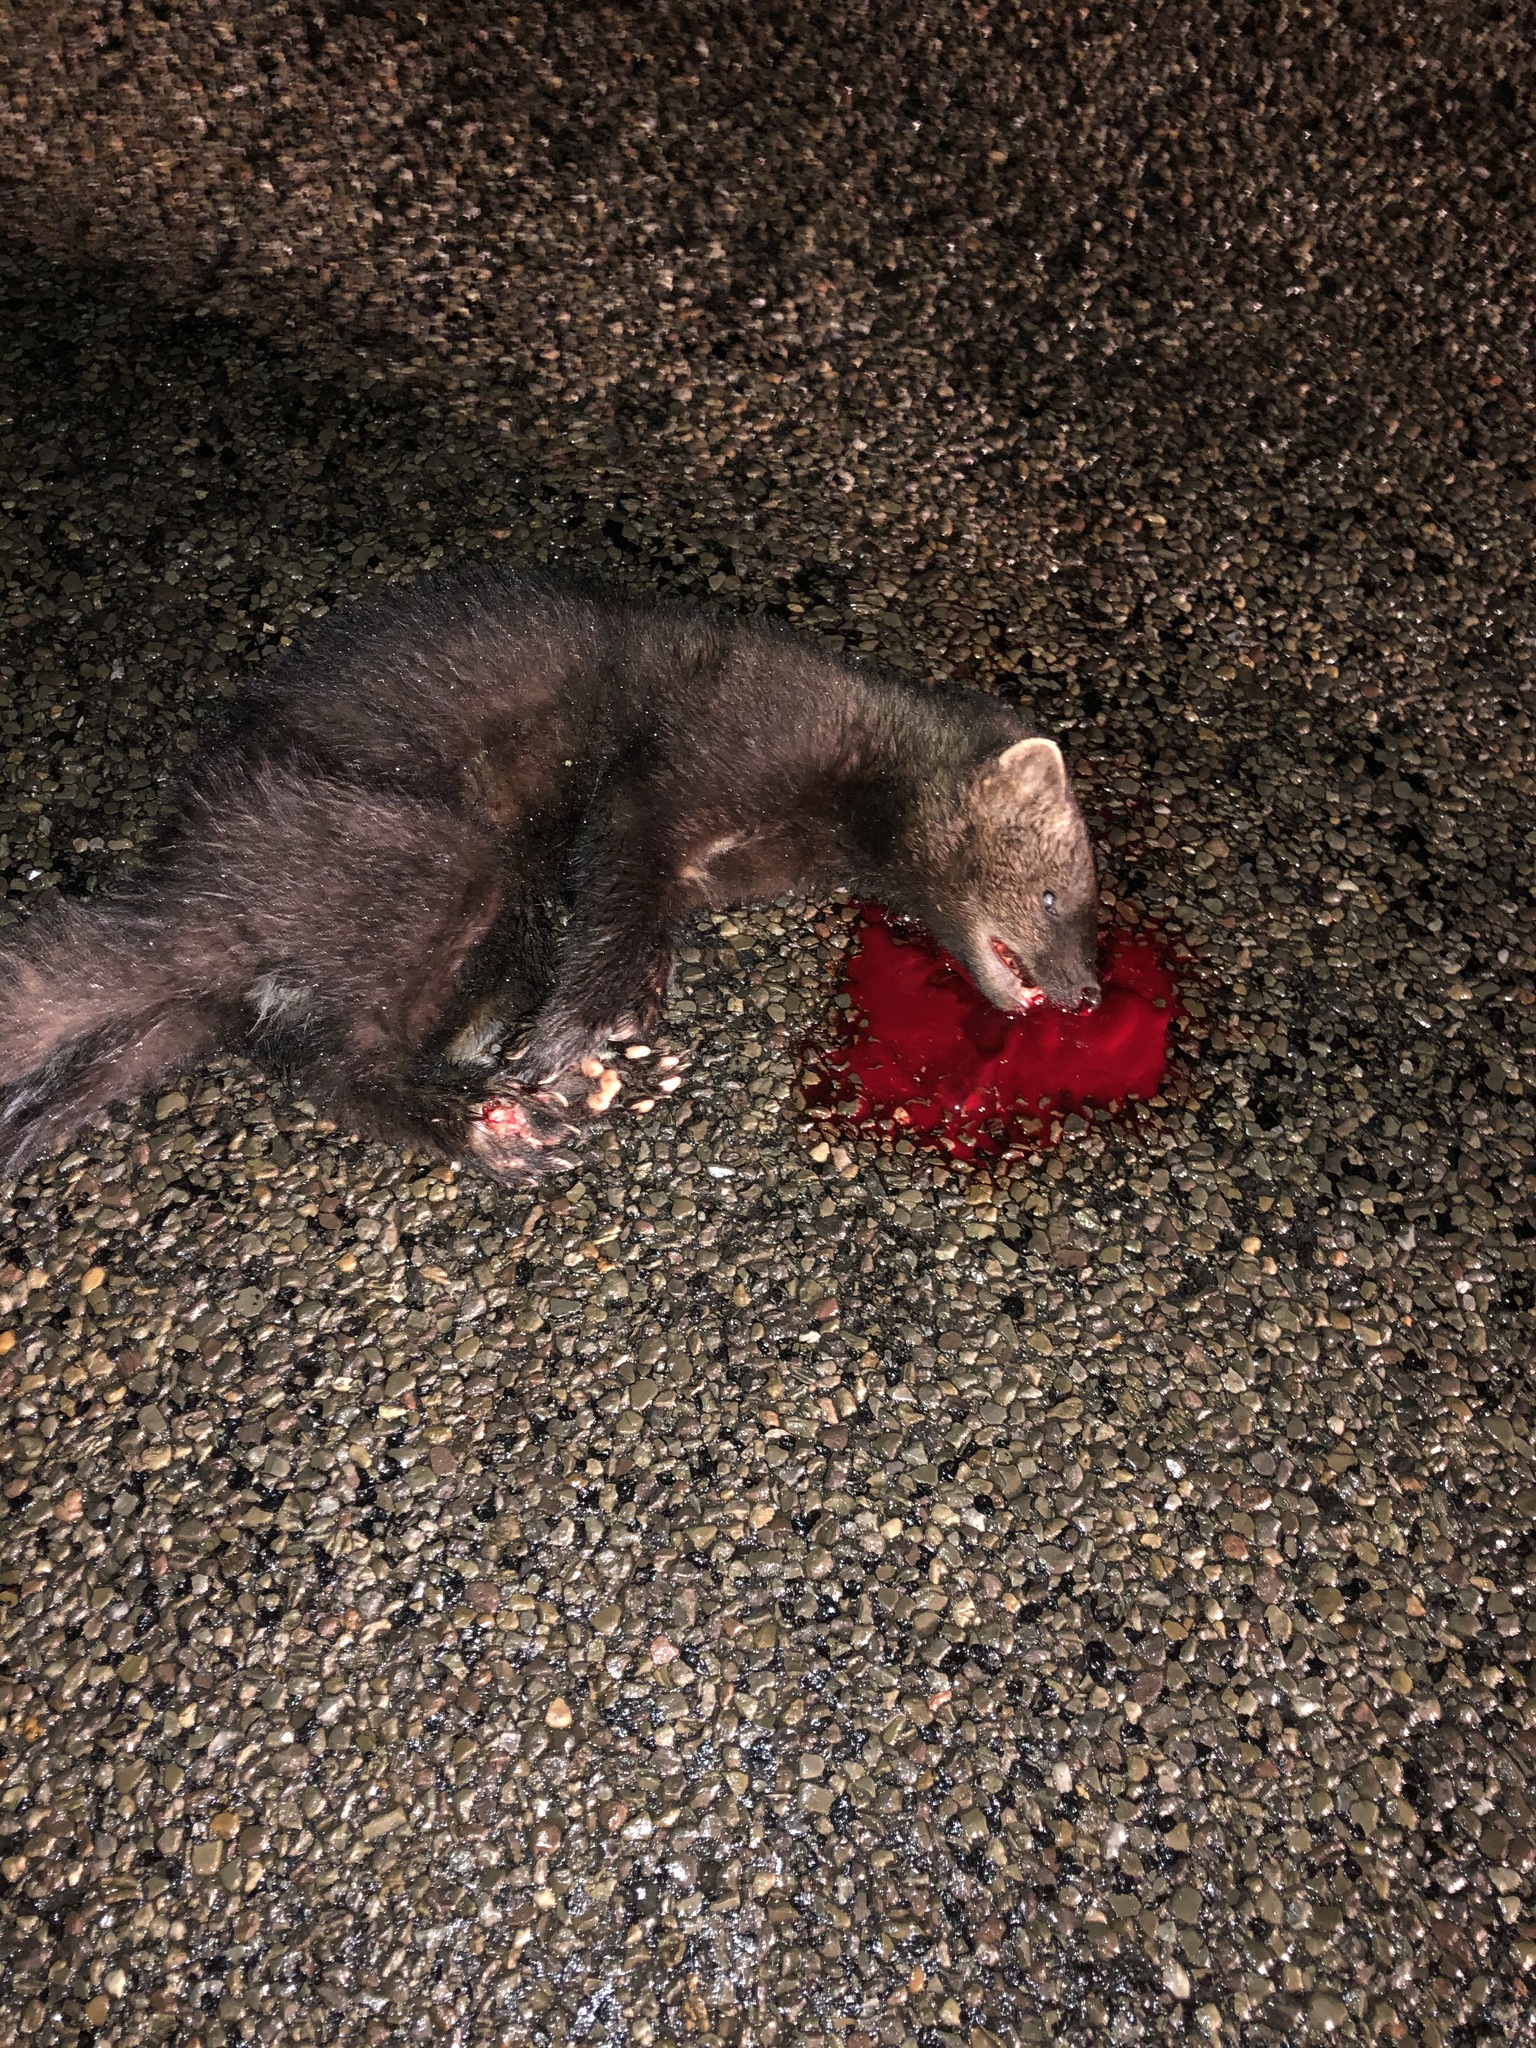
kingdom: Animalia
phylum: Chordata
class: Mammalia
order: Carnivora
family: Mustelidae
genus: Pekania
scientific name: Pekania pennanti
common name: Fisher
